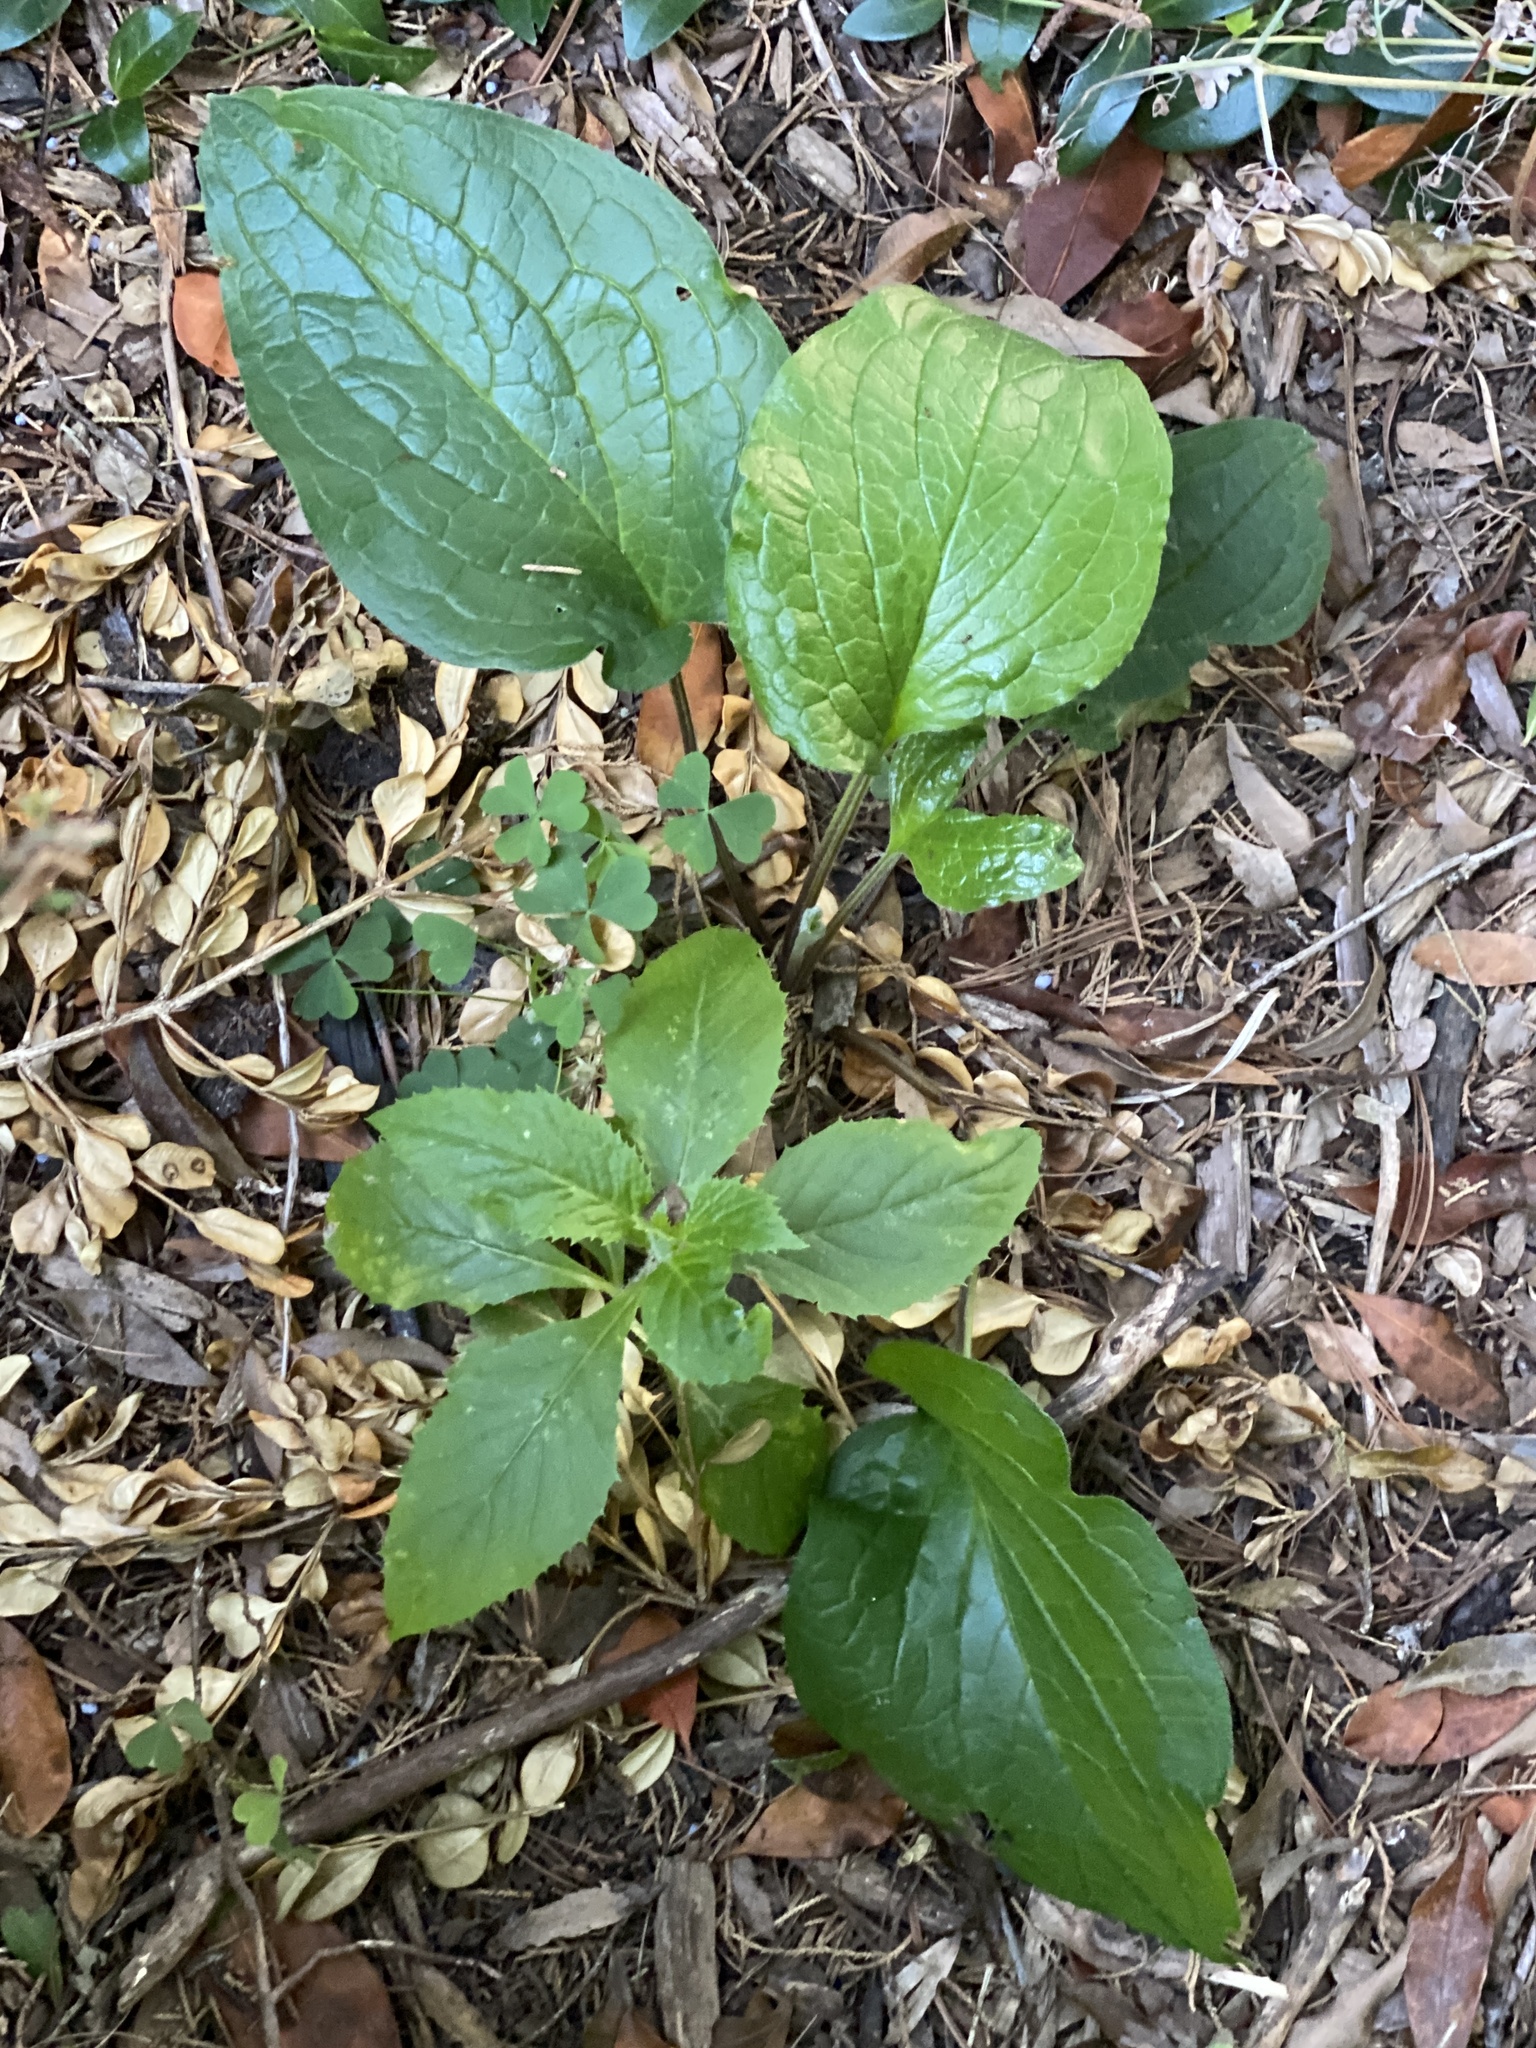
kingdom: Plantae
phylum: Tracheophyta
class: Magnoliopsida
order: Boraginales
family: Boraginaceae
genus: Hackelia
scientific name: Hackelia virginiana
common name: Beggar's-lice
